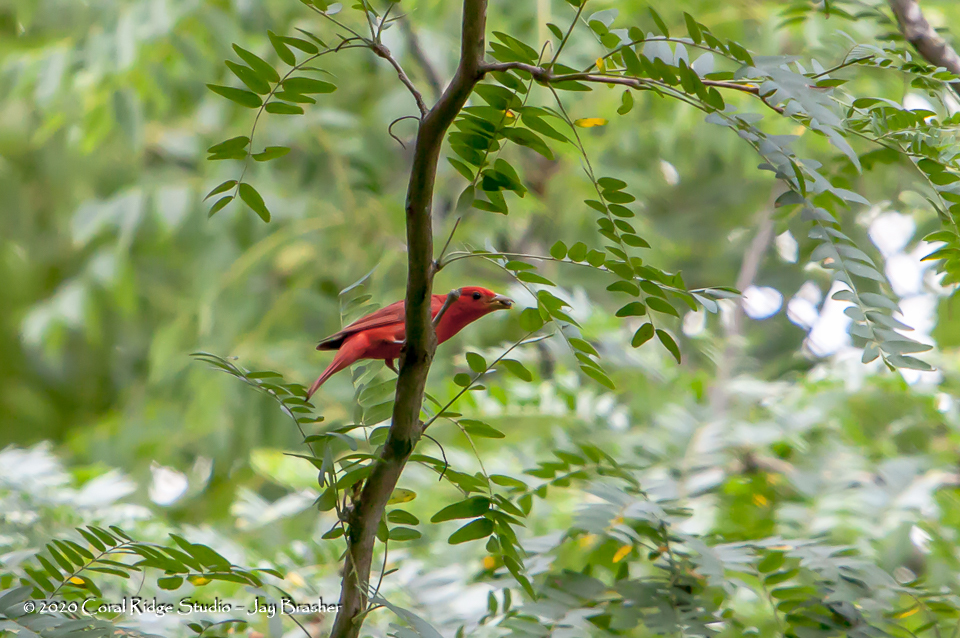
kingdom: Animalia
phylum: Chordata
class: Aves
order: Passeriformes
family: Cardinalidae
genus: Piranga
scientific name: Piranga rubra
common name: Summer tanager
